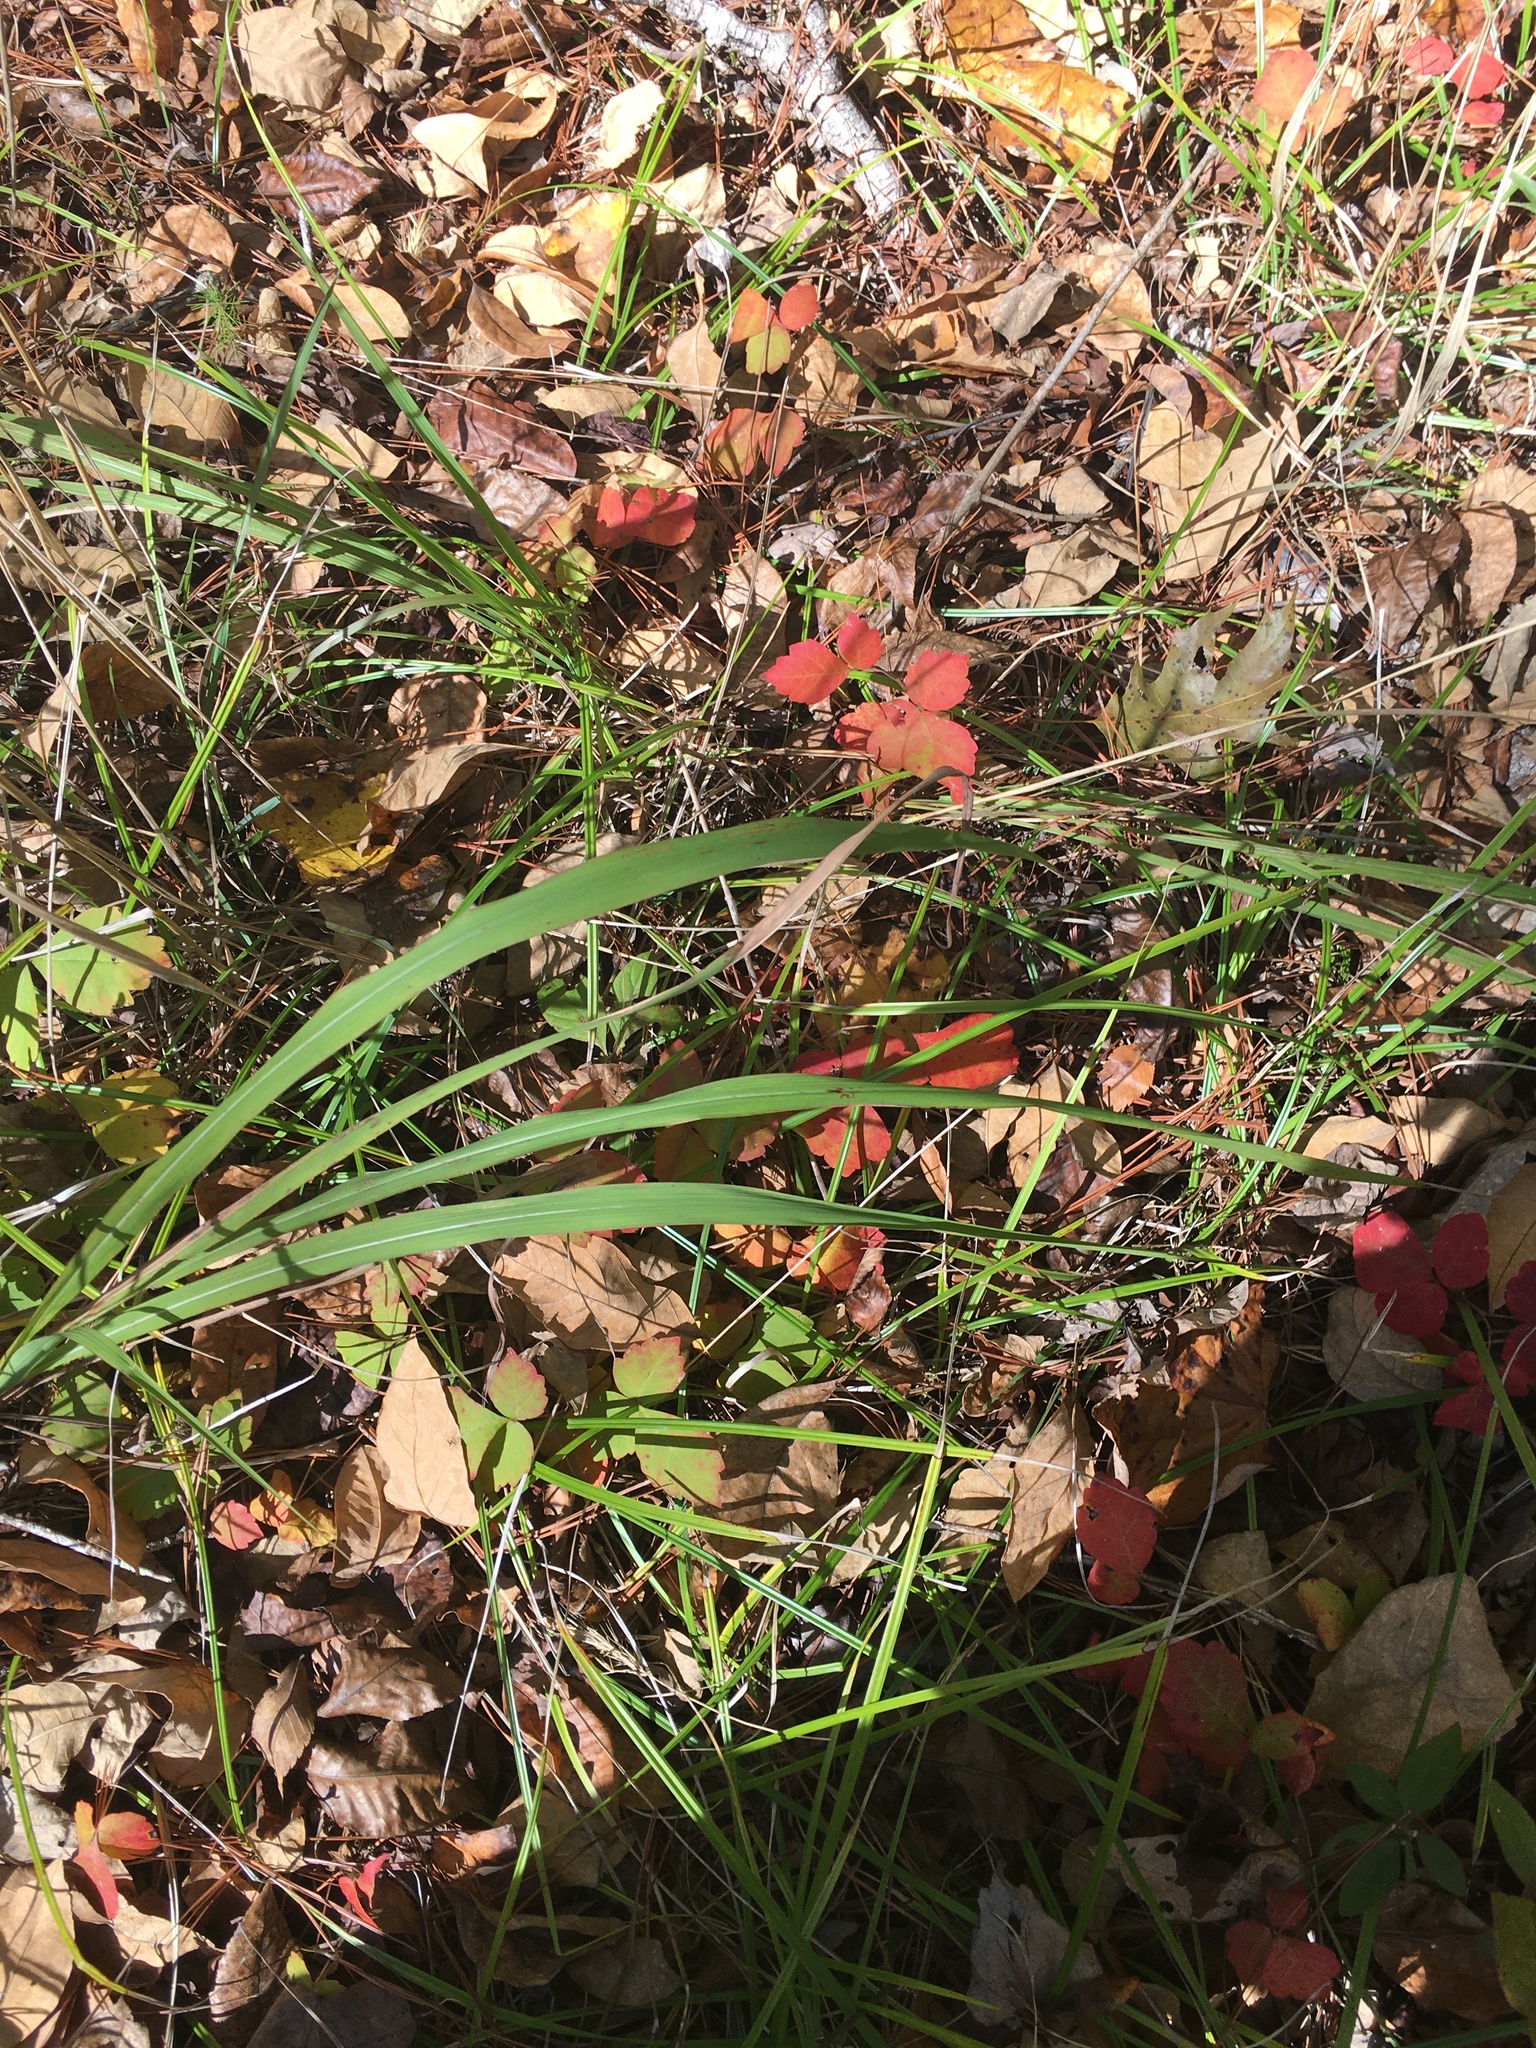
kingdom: Plantae
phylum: Tracheophyta
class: Magnoliopsida
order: Sapindales
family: Anacardiaceae
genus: Rhus
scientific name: Rhus aromatica
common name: Aromatic sumac
